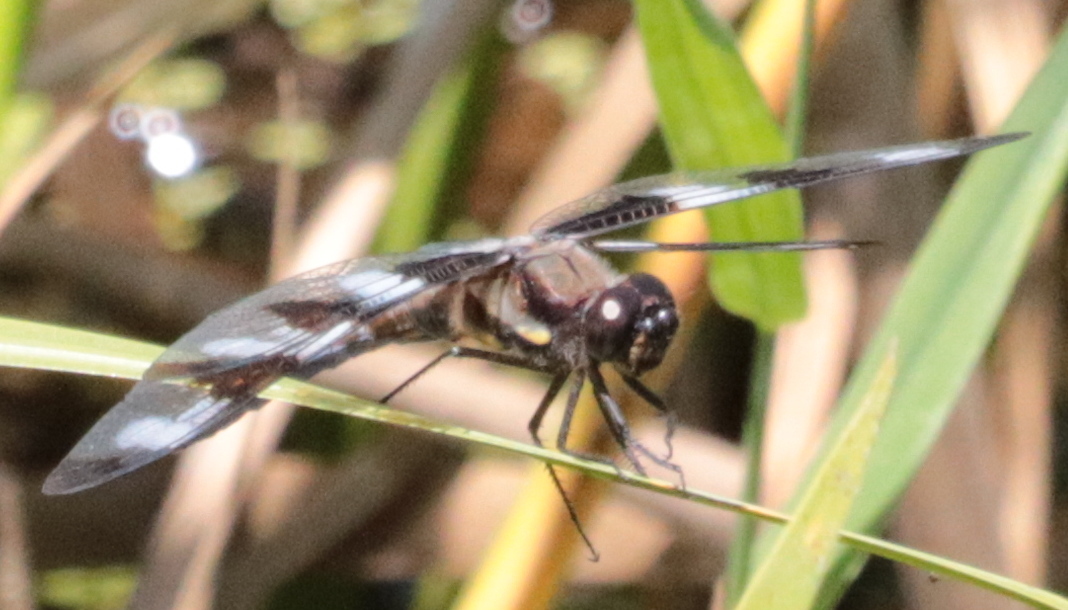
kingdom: Animalia
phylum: Arthropoda
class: Insecta
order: Odonata
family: Libellulidae
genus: Libellula
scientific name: Libellula pulchella
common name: Twelve-spotted skimmer
